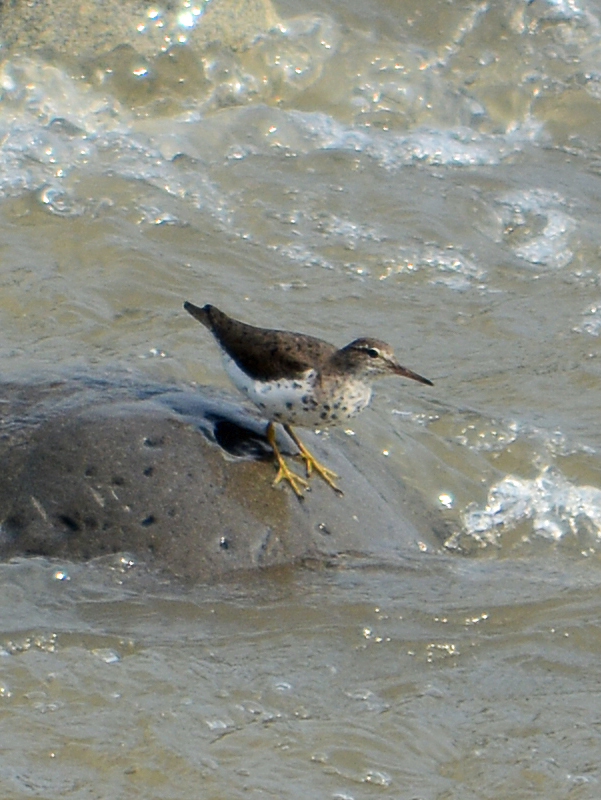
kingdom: Animalia
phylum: Chordata
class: Aves
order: Charadriiformes
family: Scolopacidae
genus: Actitis
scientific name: Actitis macularius
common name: Spotted sandpiper
